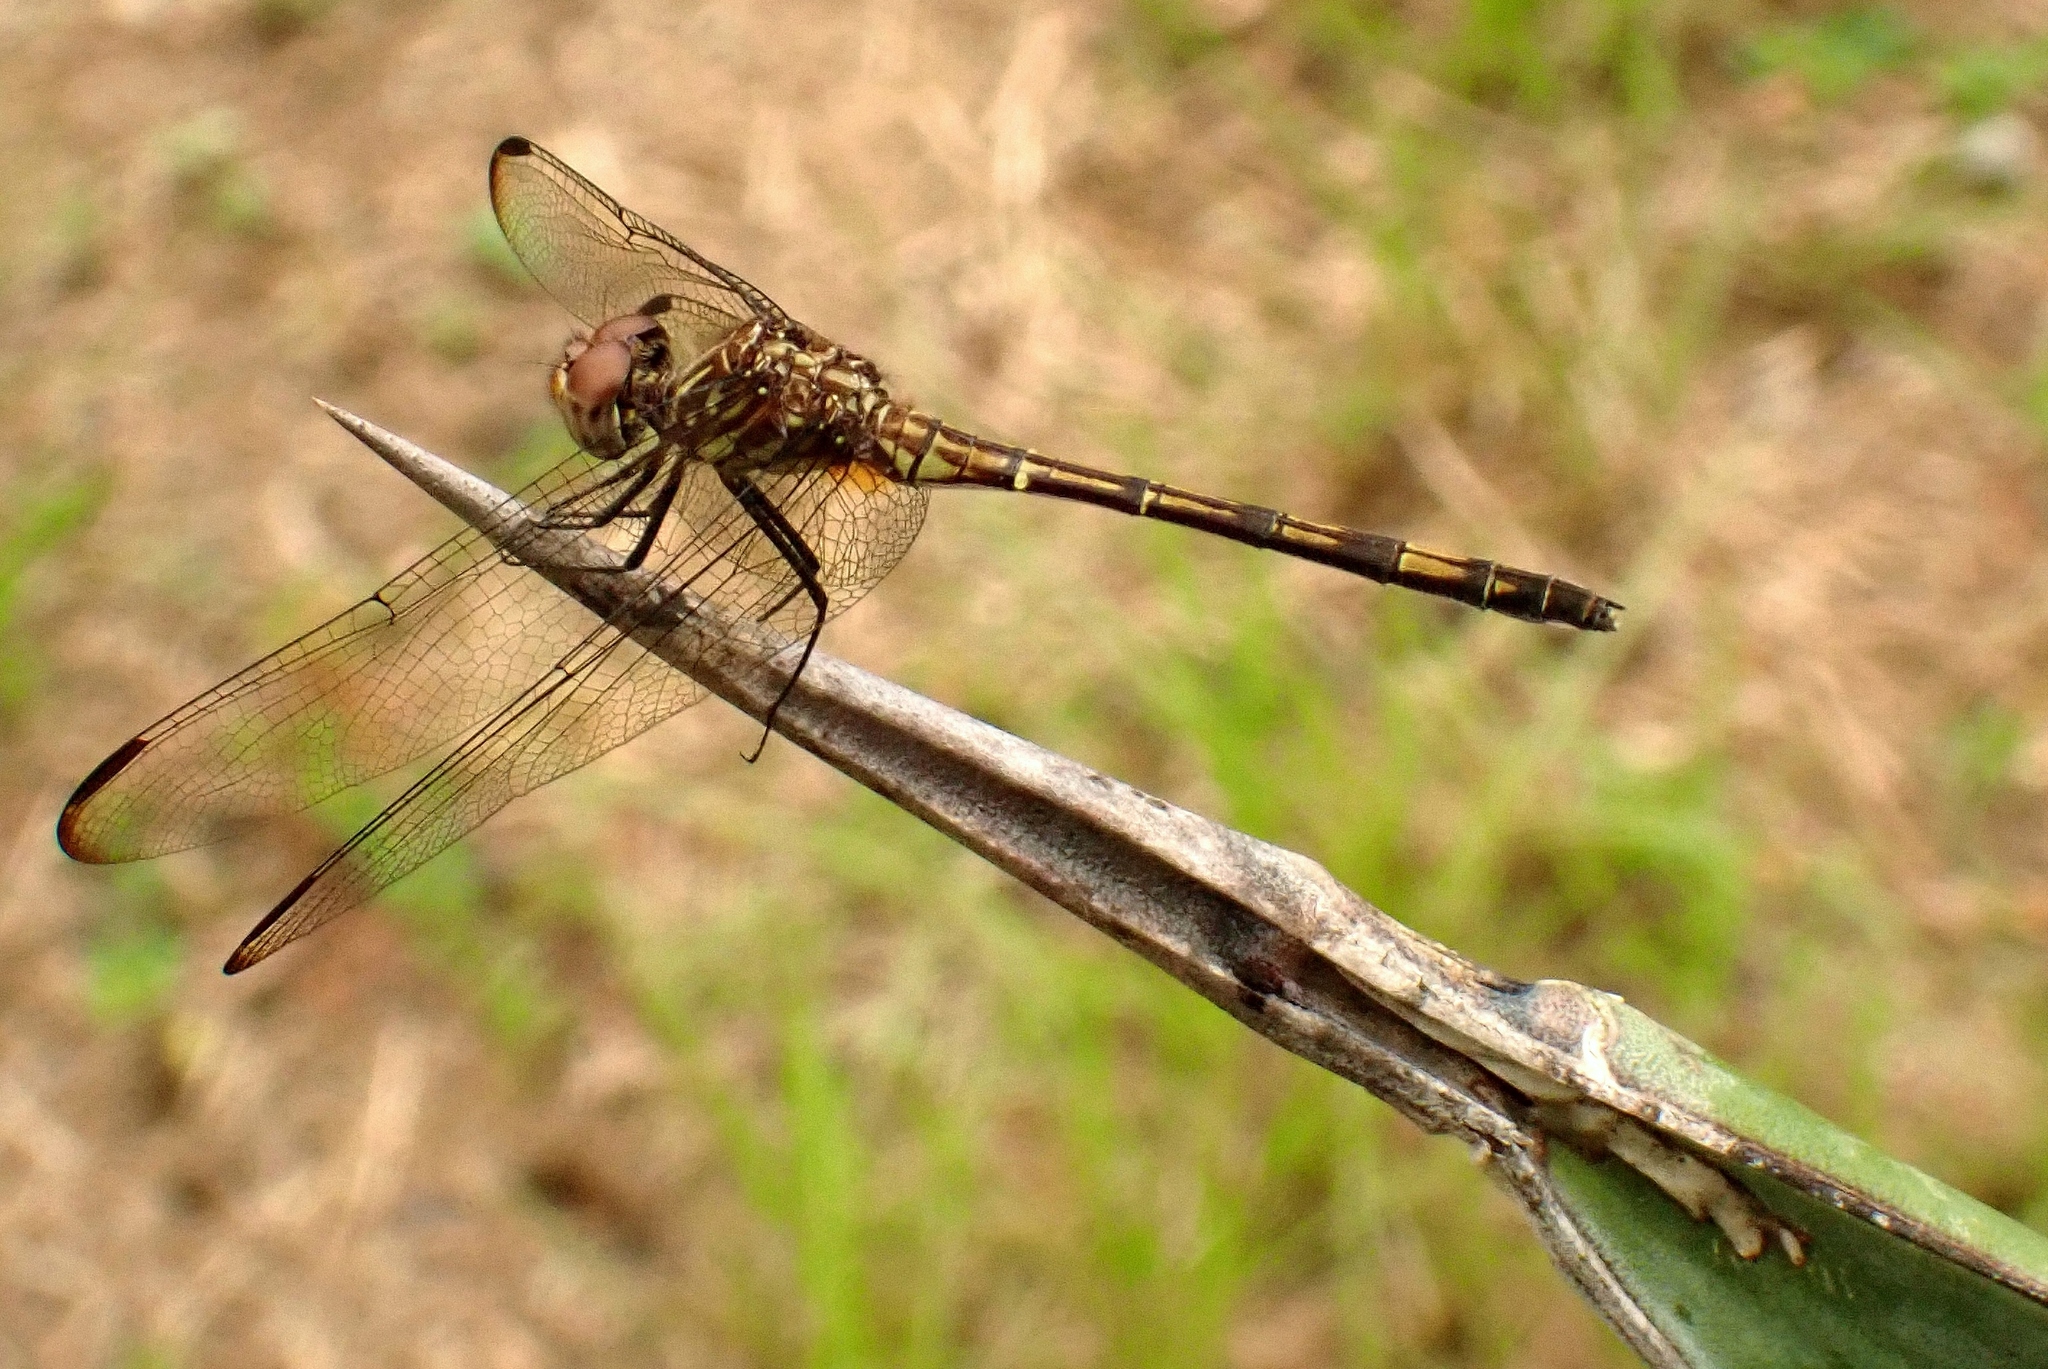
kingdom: Animalia
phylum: Arthropoda
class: Insecta
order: Odonata
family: Libellulidae
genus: Dythemis
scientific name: Dythemis sterilis
